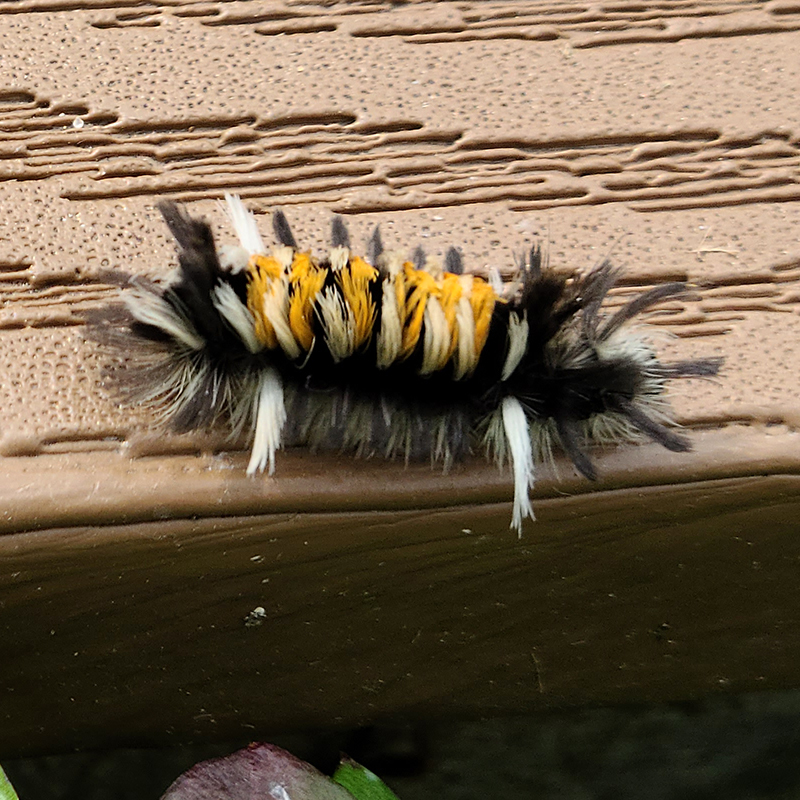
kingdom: Animalia
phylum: Arthropoda
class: Insecta
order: Lepidoptera
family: Erebidae
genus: Euchaetes
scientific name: Euchaetes egle
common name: Milkweed tussock moth
